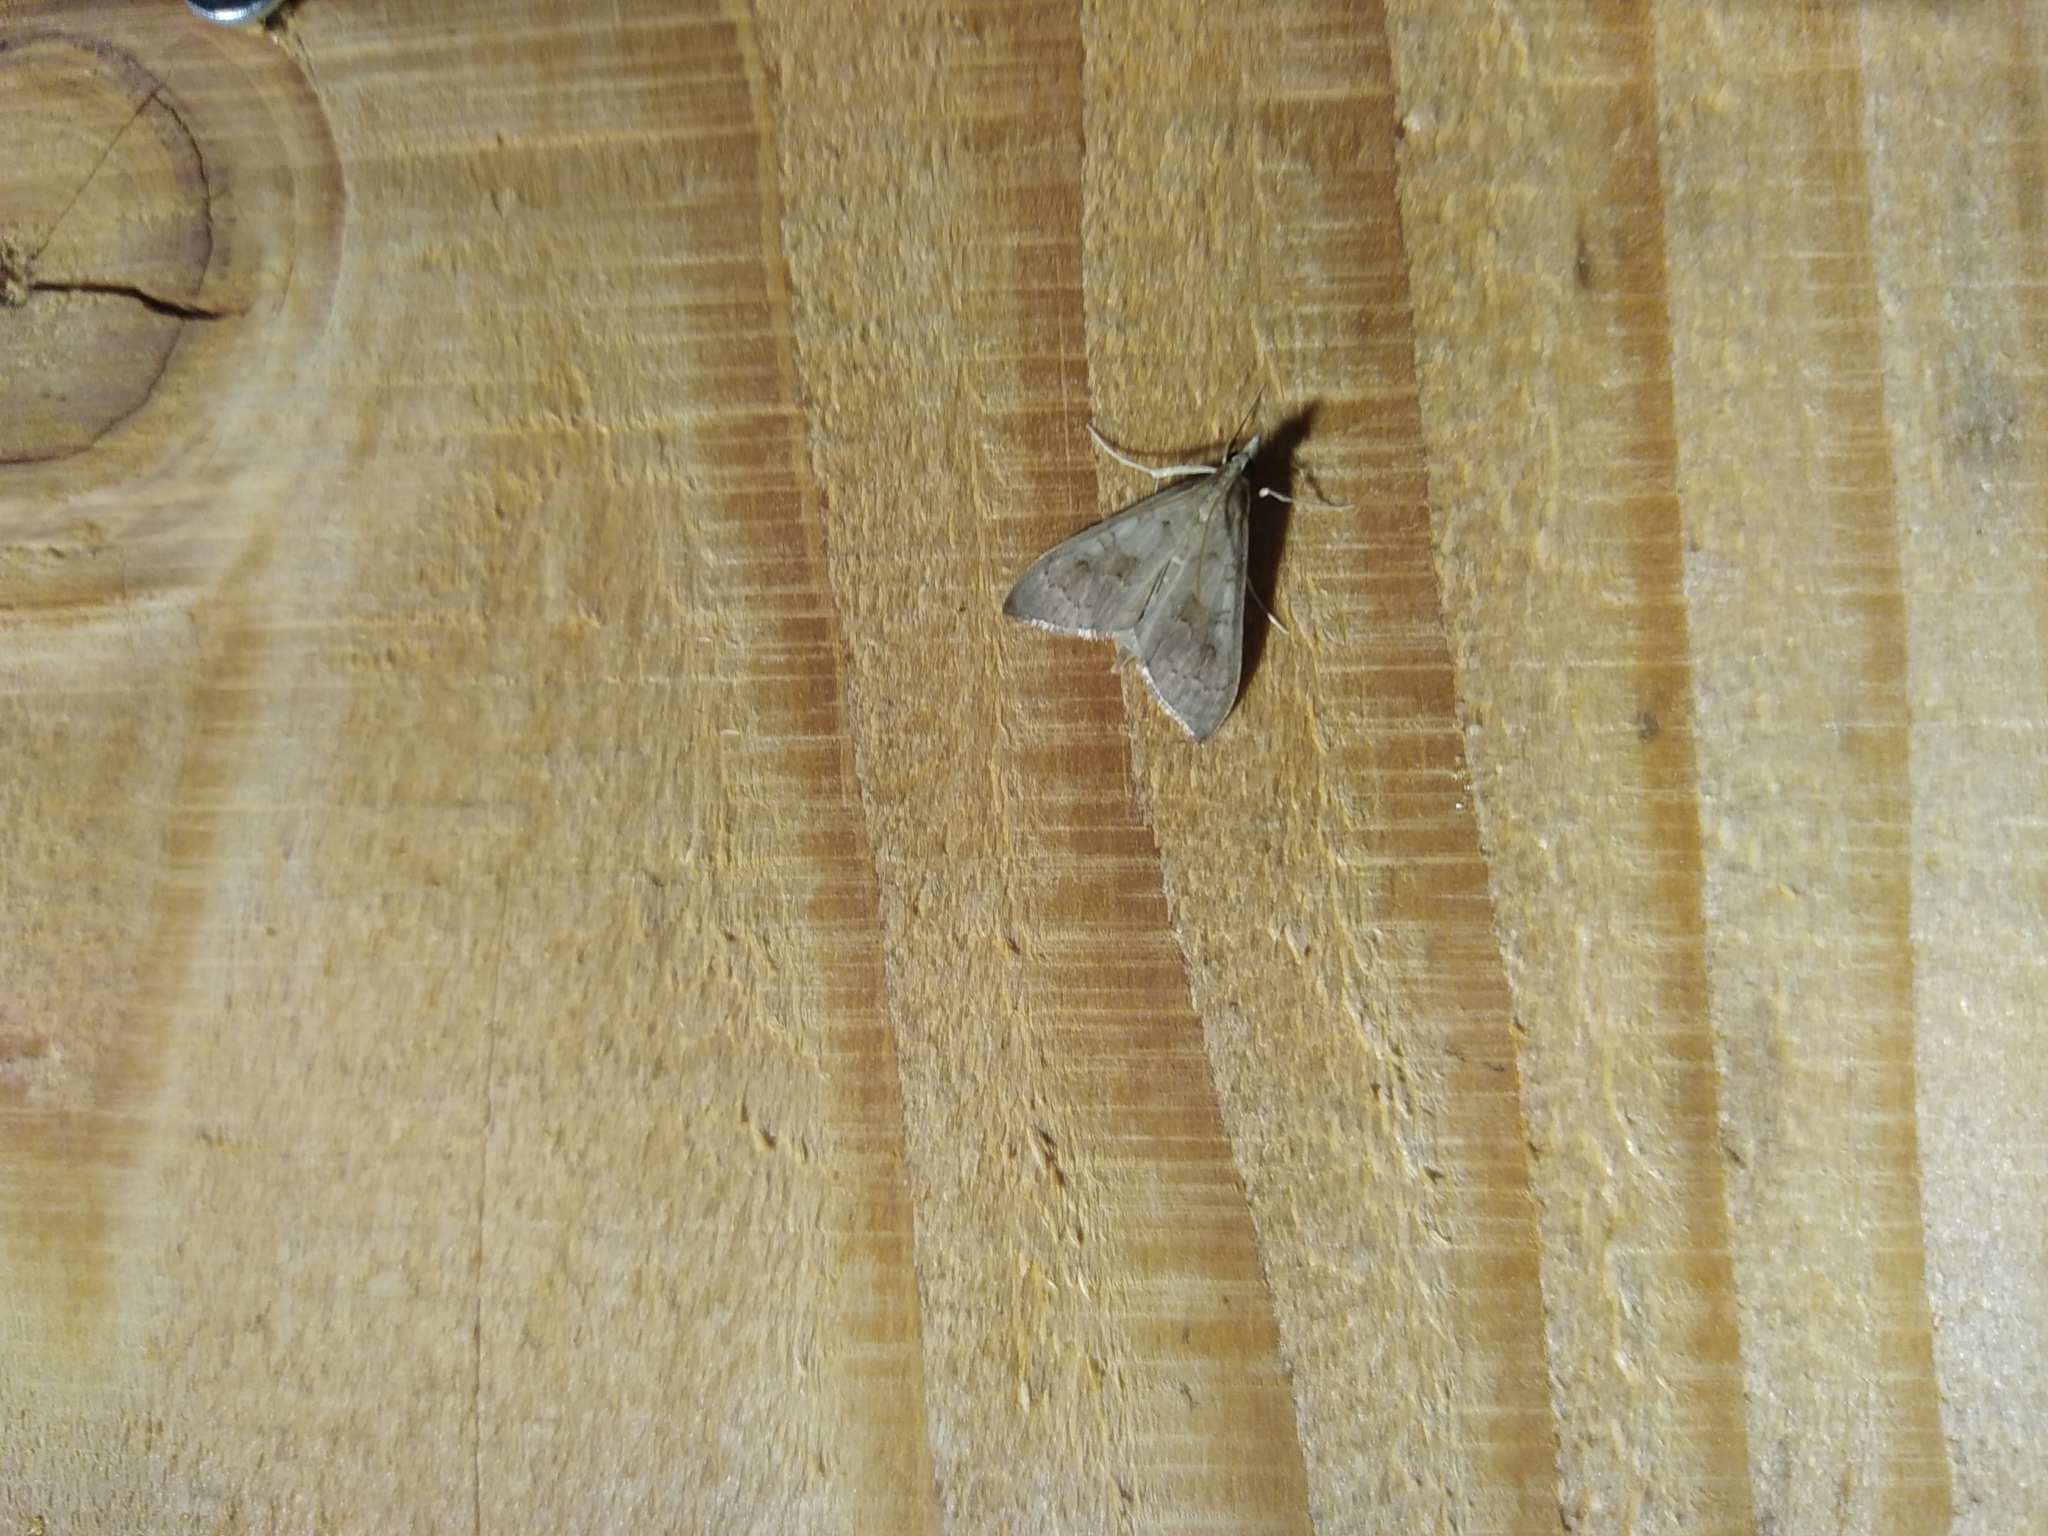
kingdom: Animalia
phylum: Arthropoda
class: Insecta
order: Lepidoptera
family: Crambidae
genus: Mecyna
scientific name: Mecyna asinalis
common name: Coastal pearl
